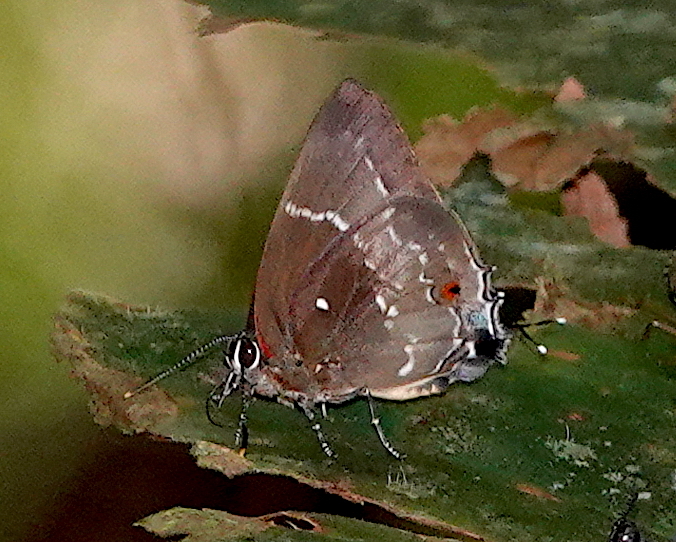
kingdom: Animalia
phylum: Arthropoda
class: Insecta
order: Lepidoptera
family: Lycaenidae
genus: Thecla
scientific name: Thecla phoenissa
